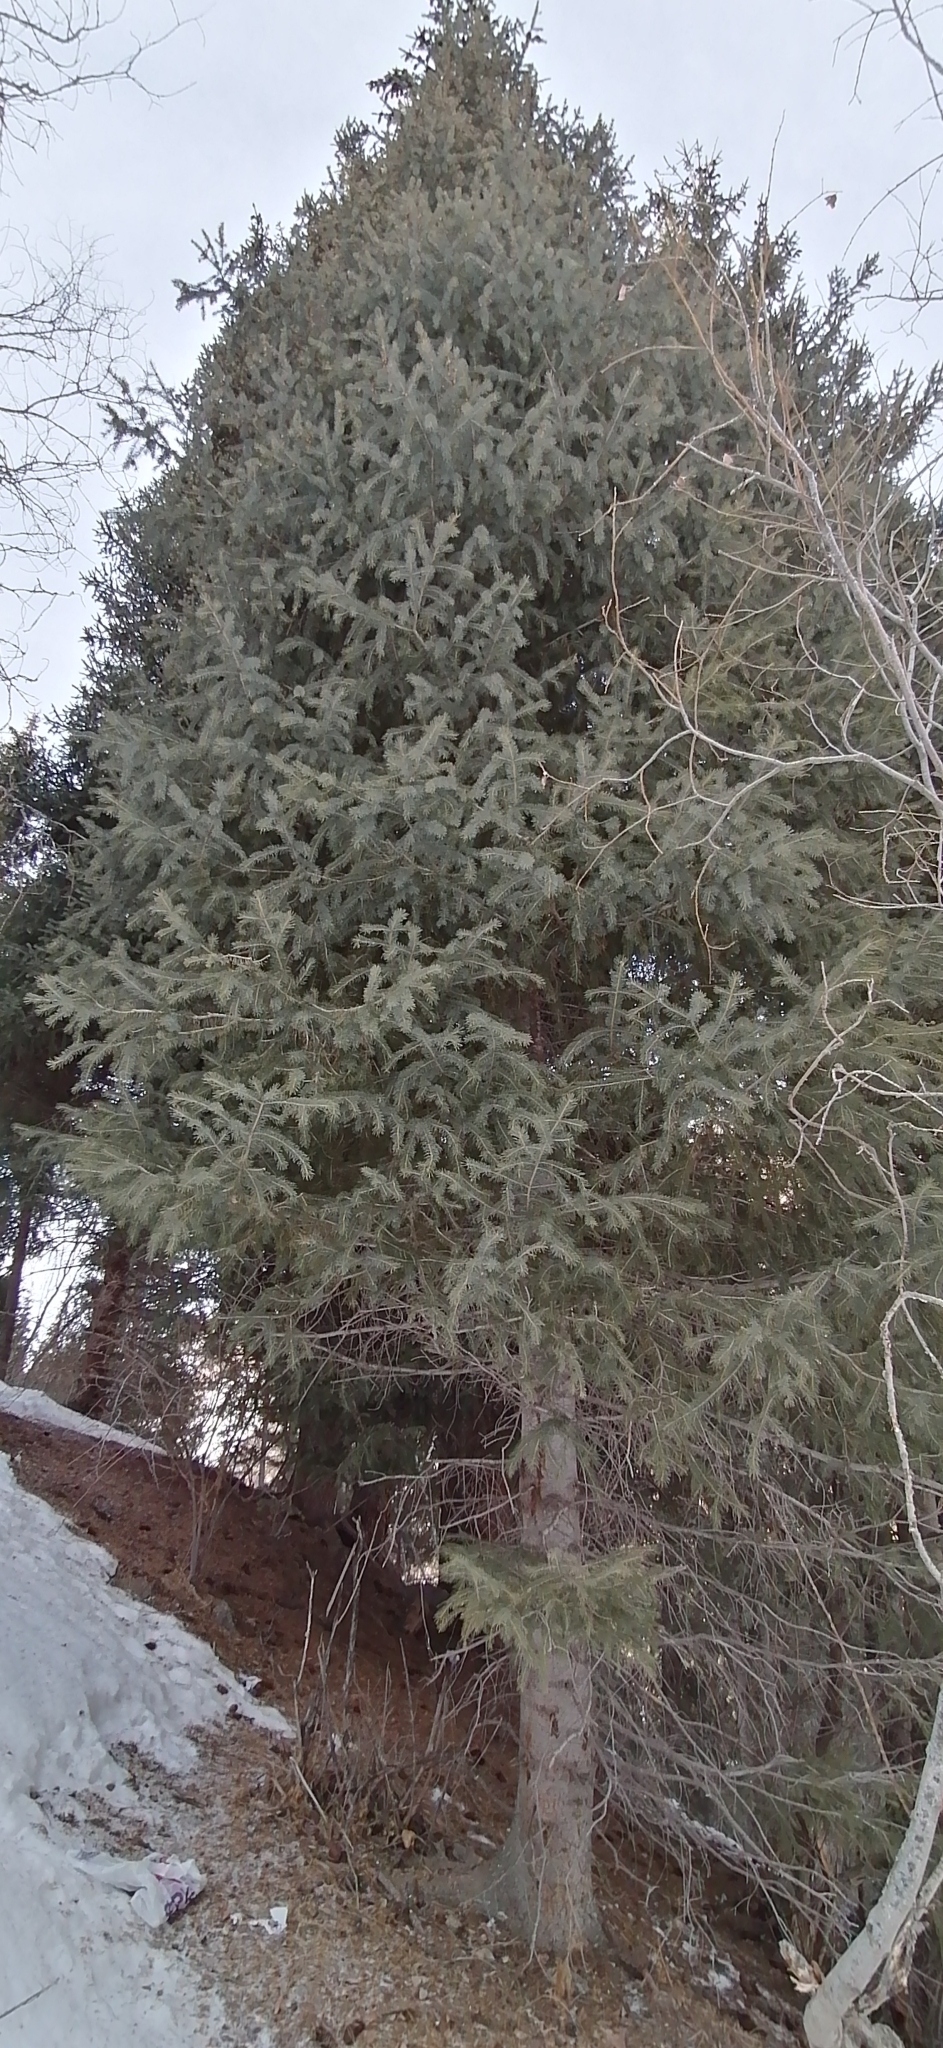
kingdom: Plantae
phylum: Tracheophyta
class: Pinopsida
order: Pinales
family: Pinaceae
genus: Picea
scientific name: Picea schrenkiana
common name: Asian spruce
